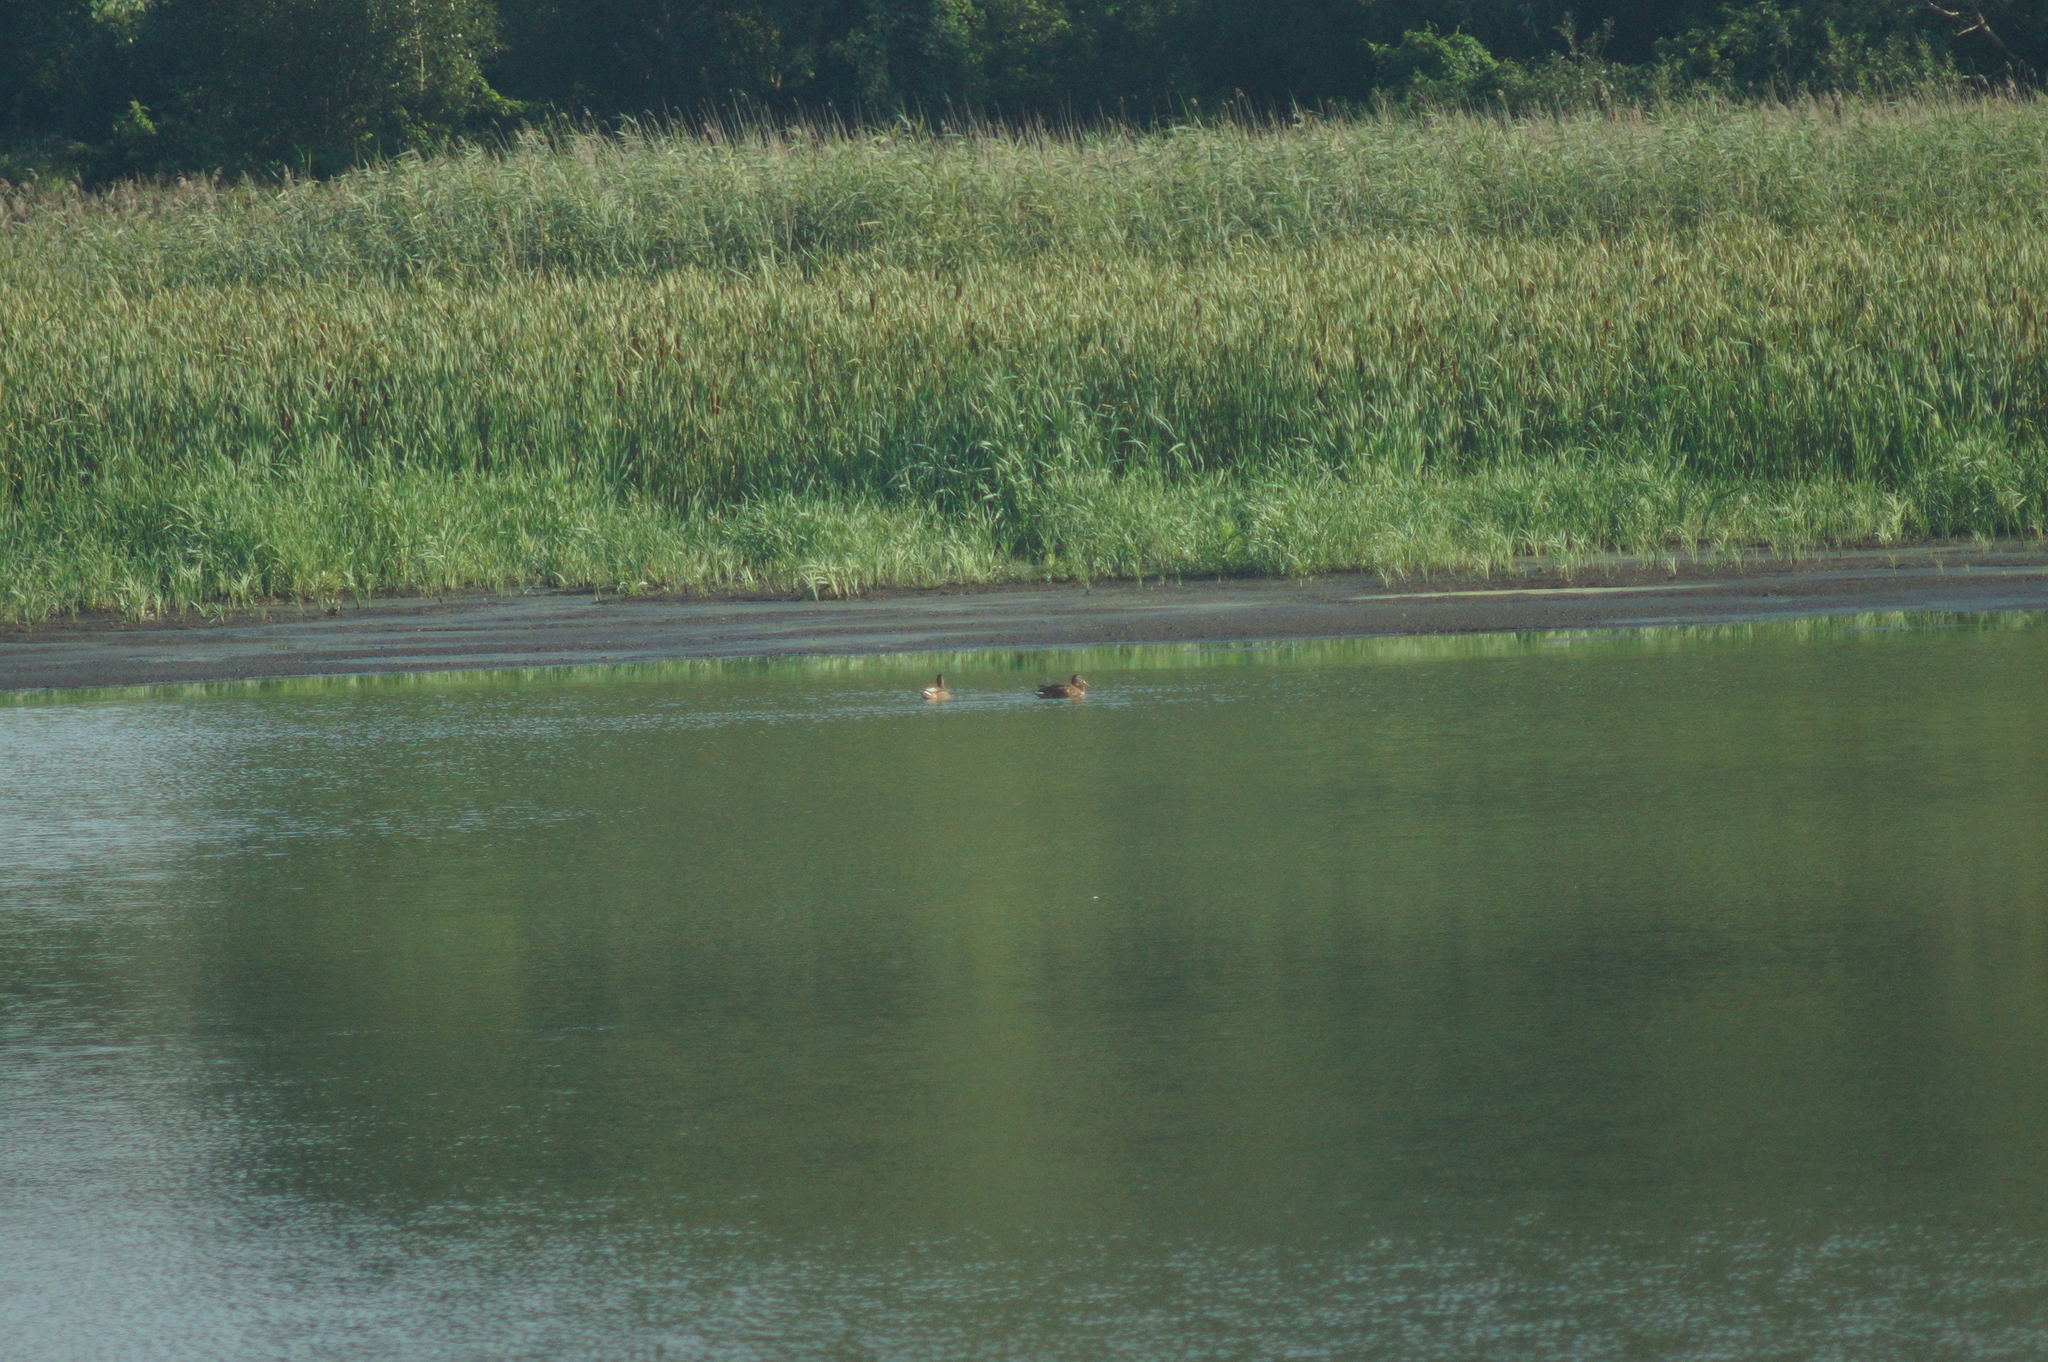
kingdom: Animalia
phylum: Chordata
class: Aves
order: Anseriformes
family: Anatidae
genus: Anas
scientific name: Anas platyrhynchos
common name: Mallard
